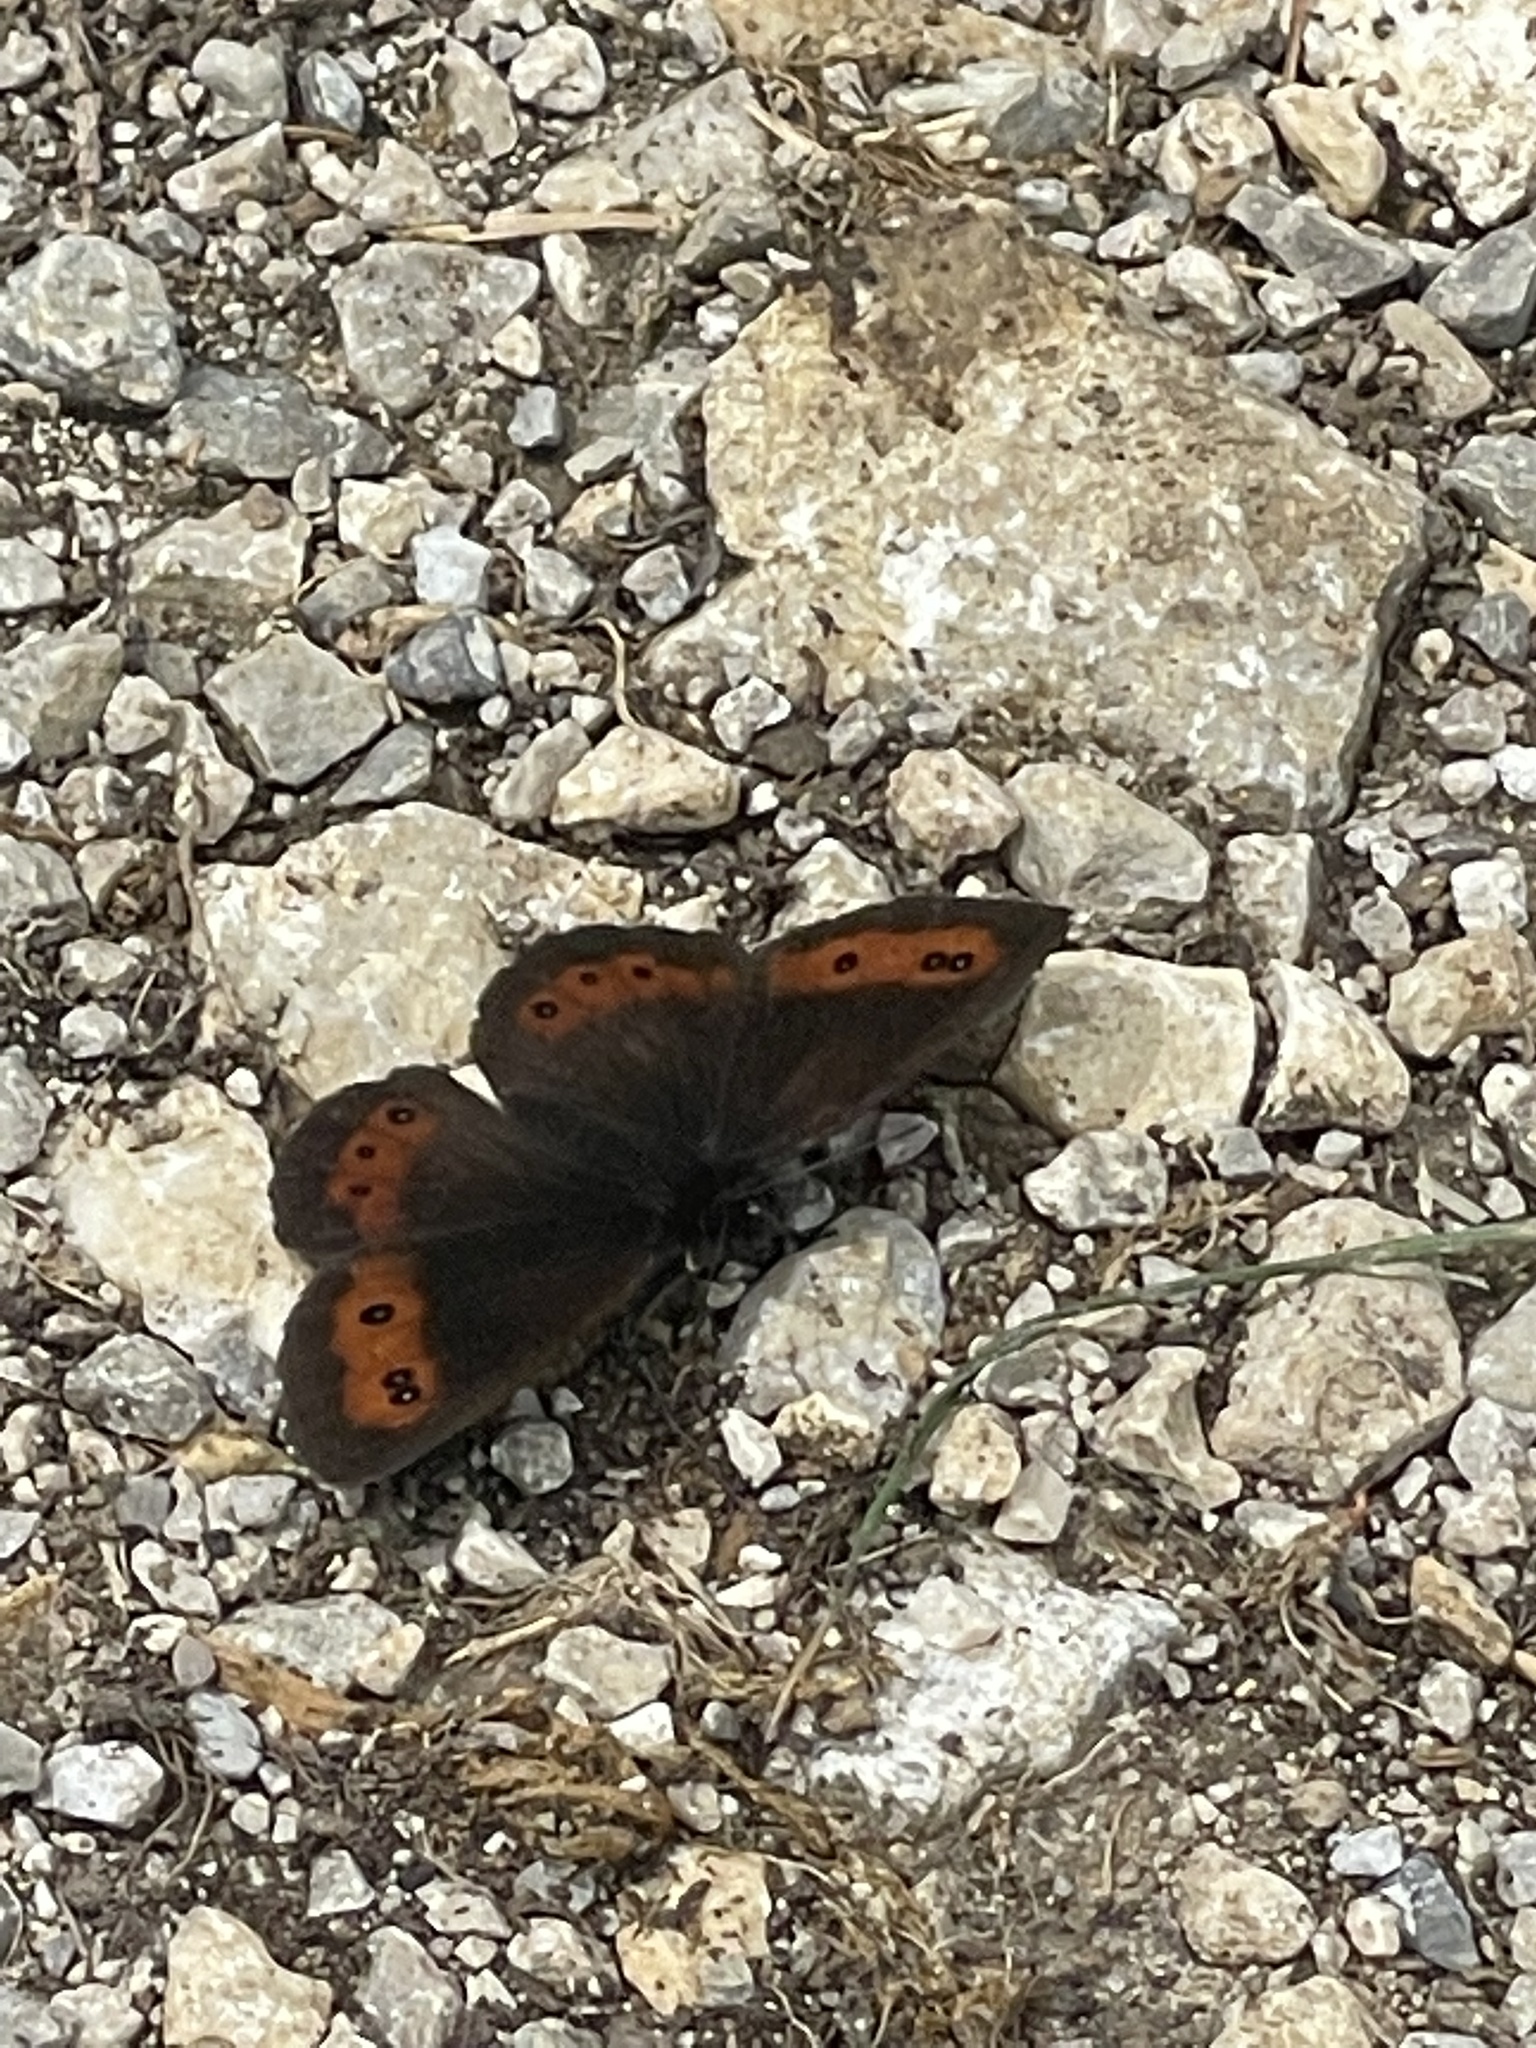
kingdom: Animalia
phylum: Arthropoda
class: Insecta
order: Lepidoptera
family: Nymphalidae
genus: Erebia
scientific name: Erebia ligea
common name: Arran brown
